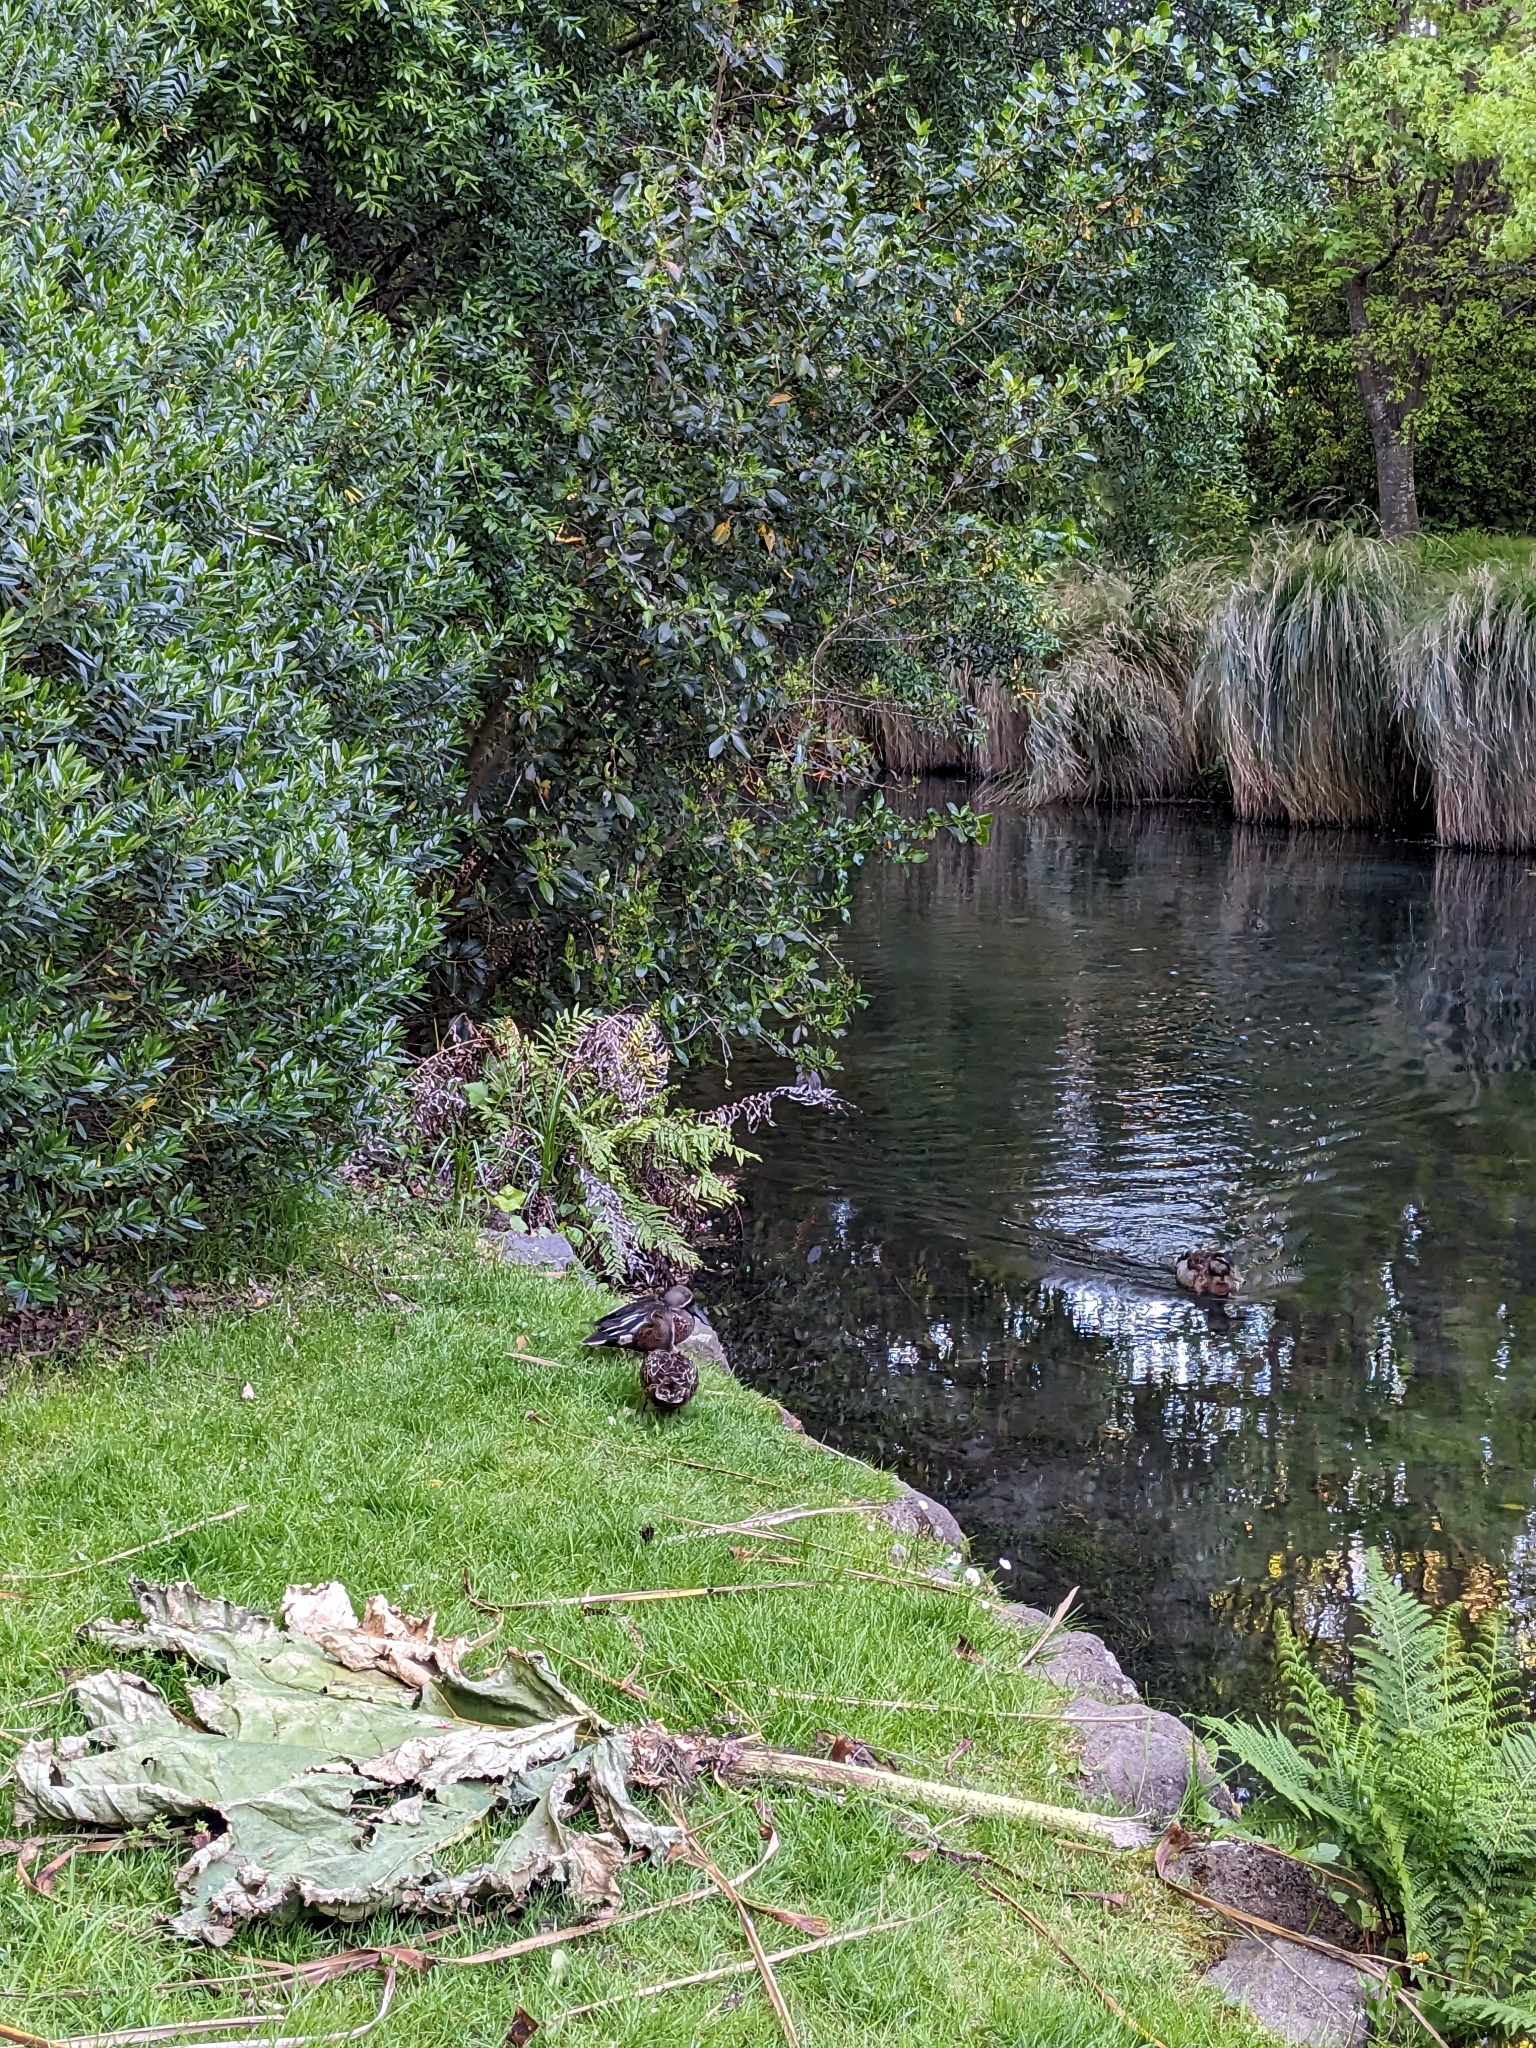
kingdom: Animalia
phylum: Chordata
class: Aves
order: Anseriformes
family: Anatidae
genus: Spatula
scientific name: Spatula rhynchotis
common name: Australian shoveler
